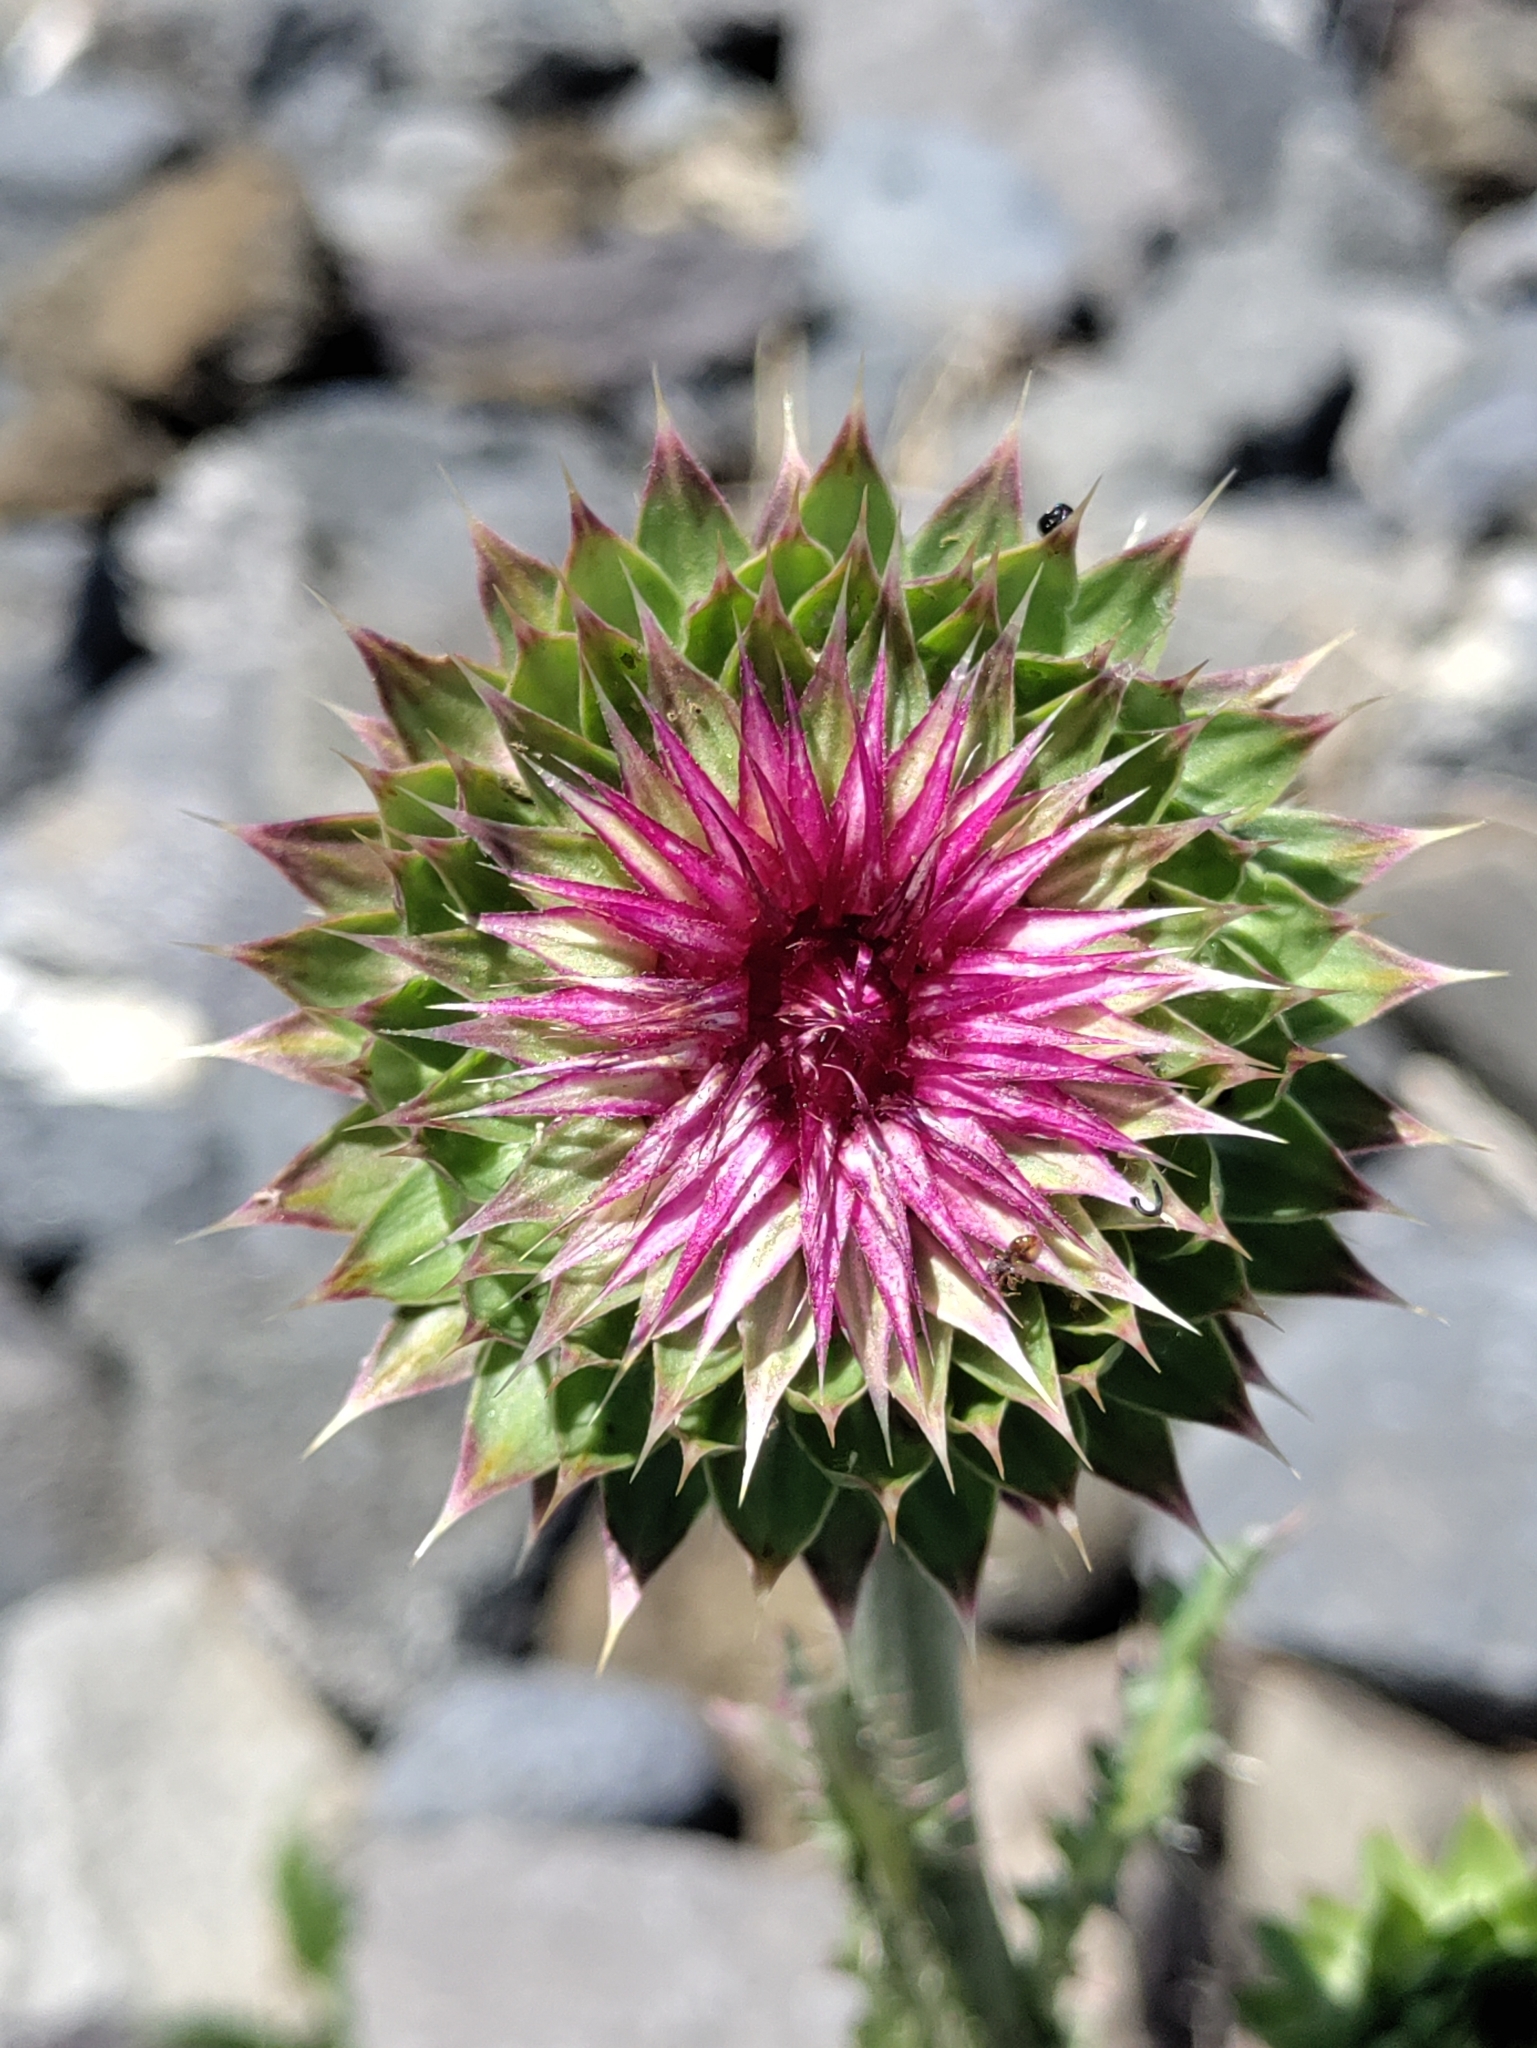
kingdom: Plantae
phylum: Tracheophyta
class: Magnoliopsida
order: Asterales
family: Asteraceae
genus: Carduus
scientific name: Carduus nutans
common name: Musk thistle
